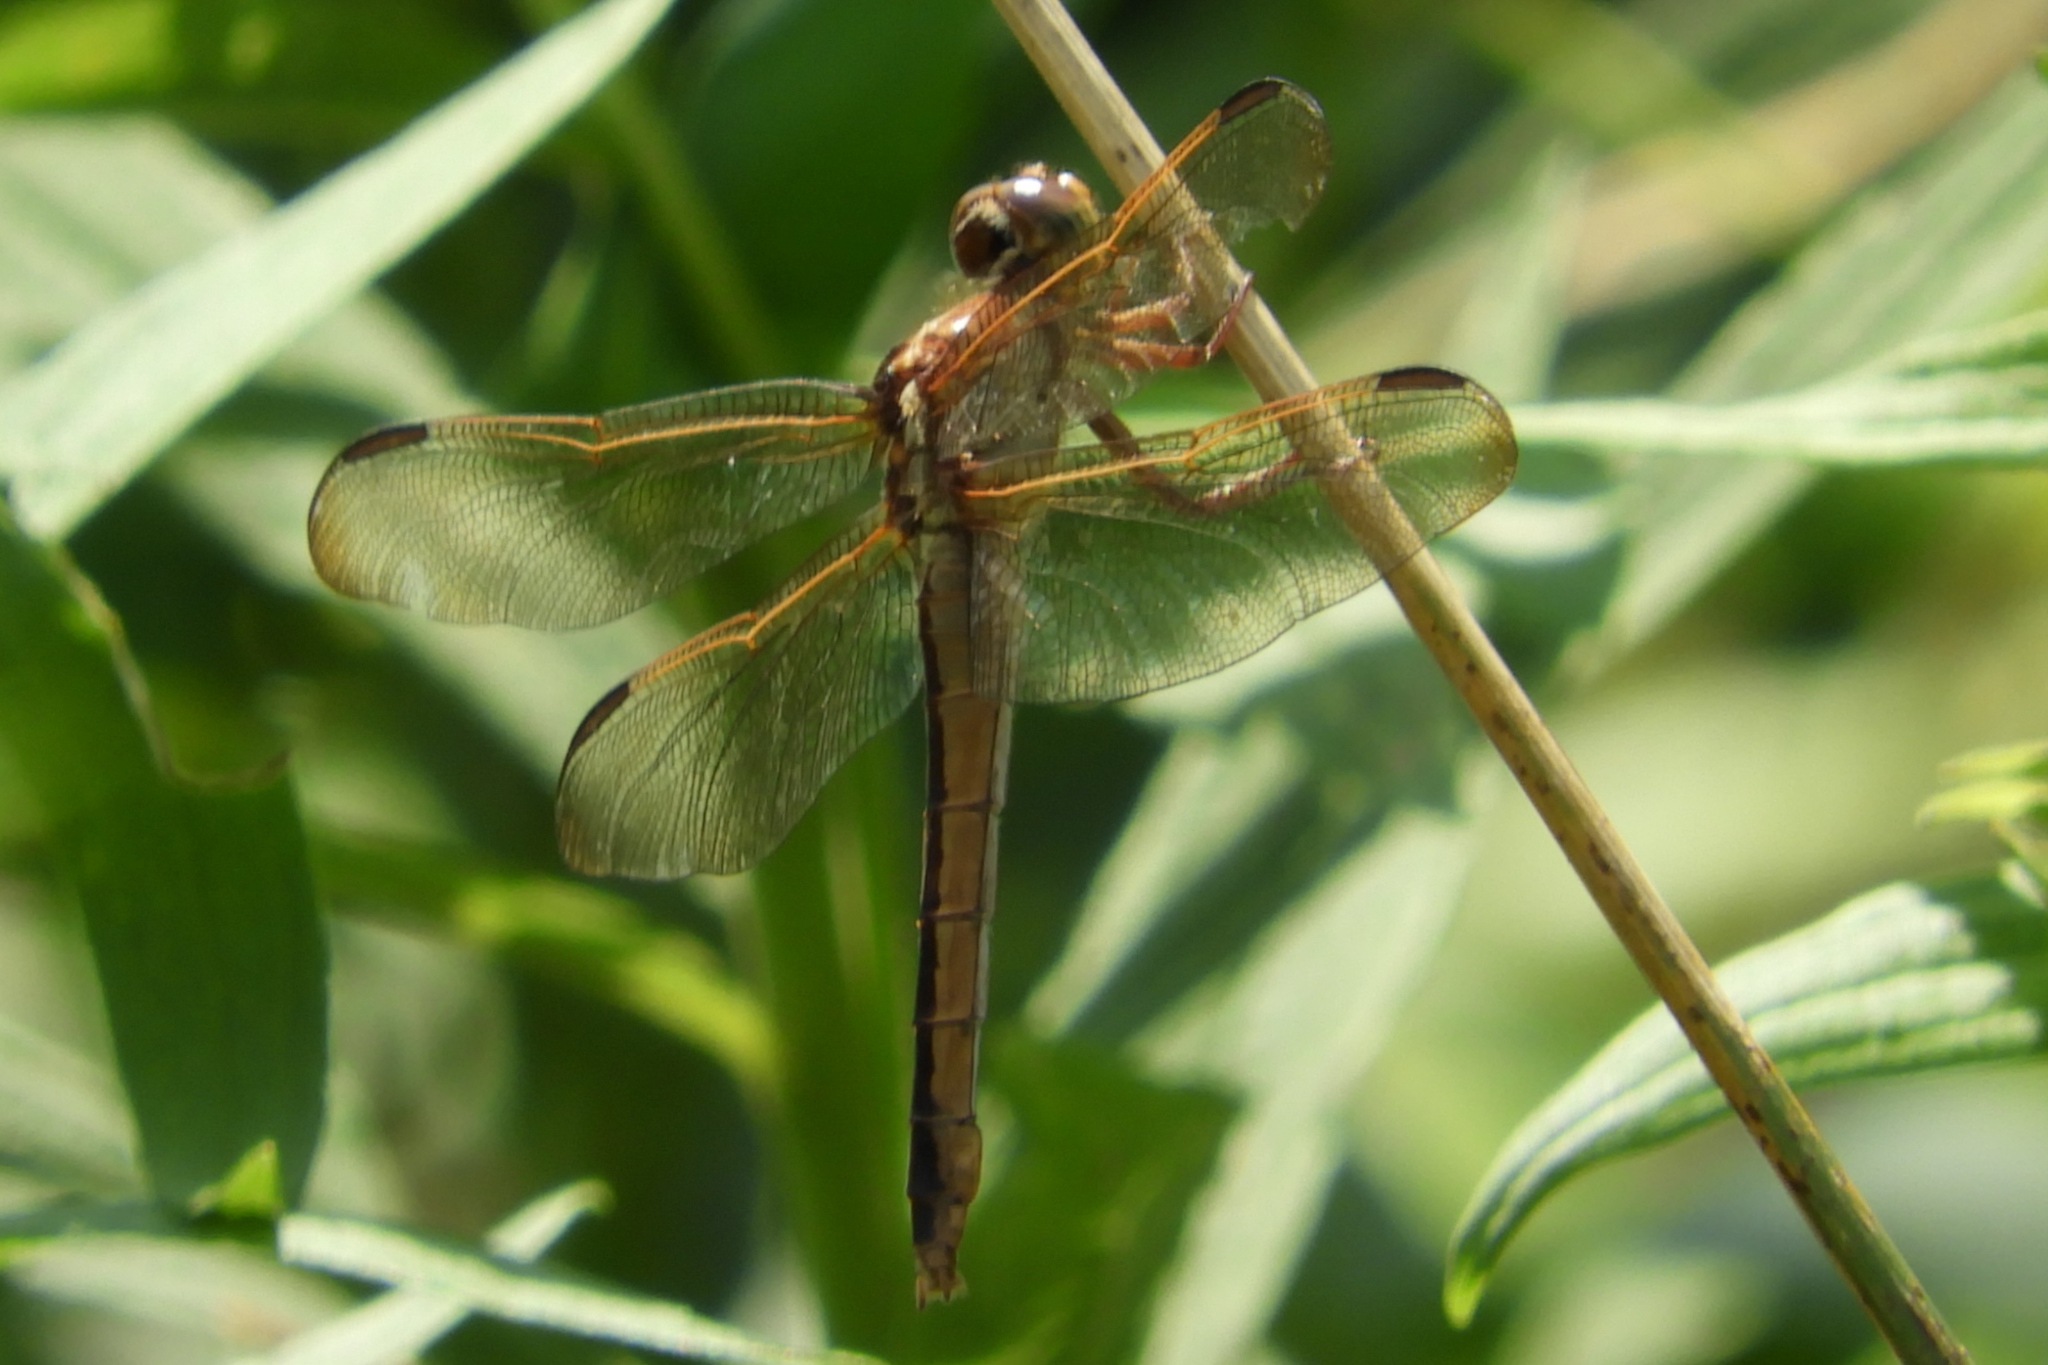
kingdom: Animalia
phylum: Arthropoda
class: Insecta
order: Odonata
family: Libellulidae
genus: Libellula
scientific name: Libellula needhami
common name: Needham's skimmer
